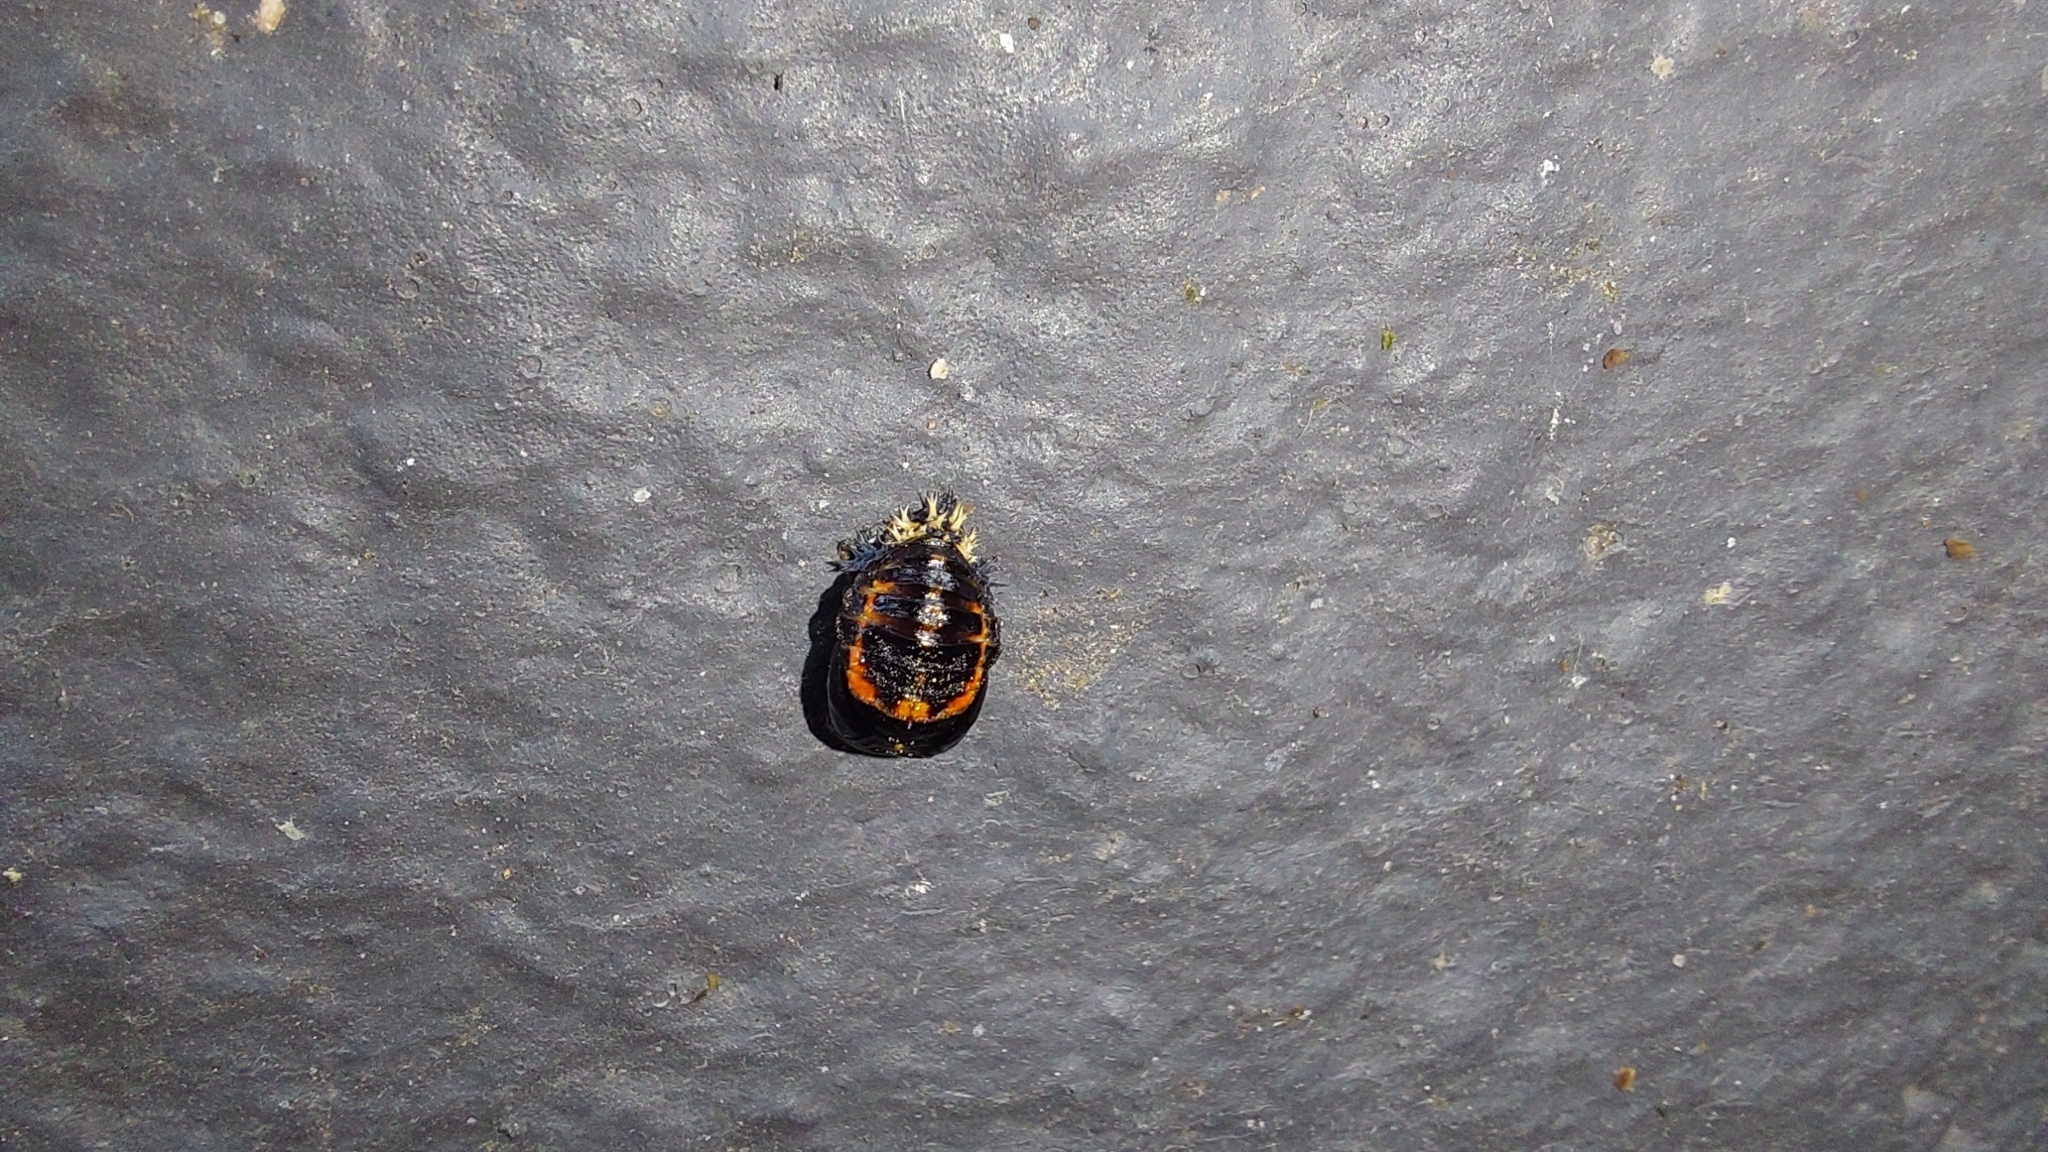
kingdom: Animalia
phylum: Arthropoda
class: Insecta
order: Coleoptera
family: Coccinellidae
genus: Harmonia
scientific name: Harmonia axyridis
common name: Harlequin ladybird
